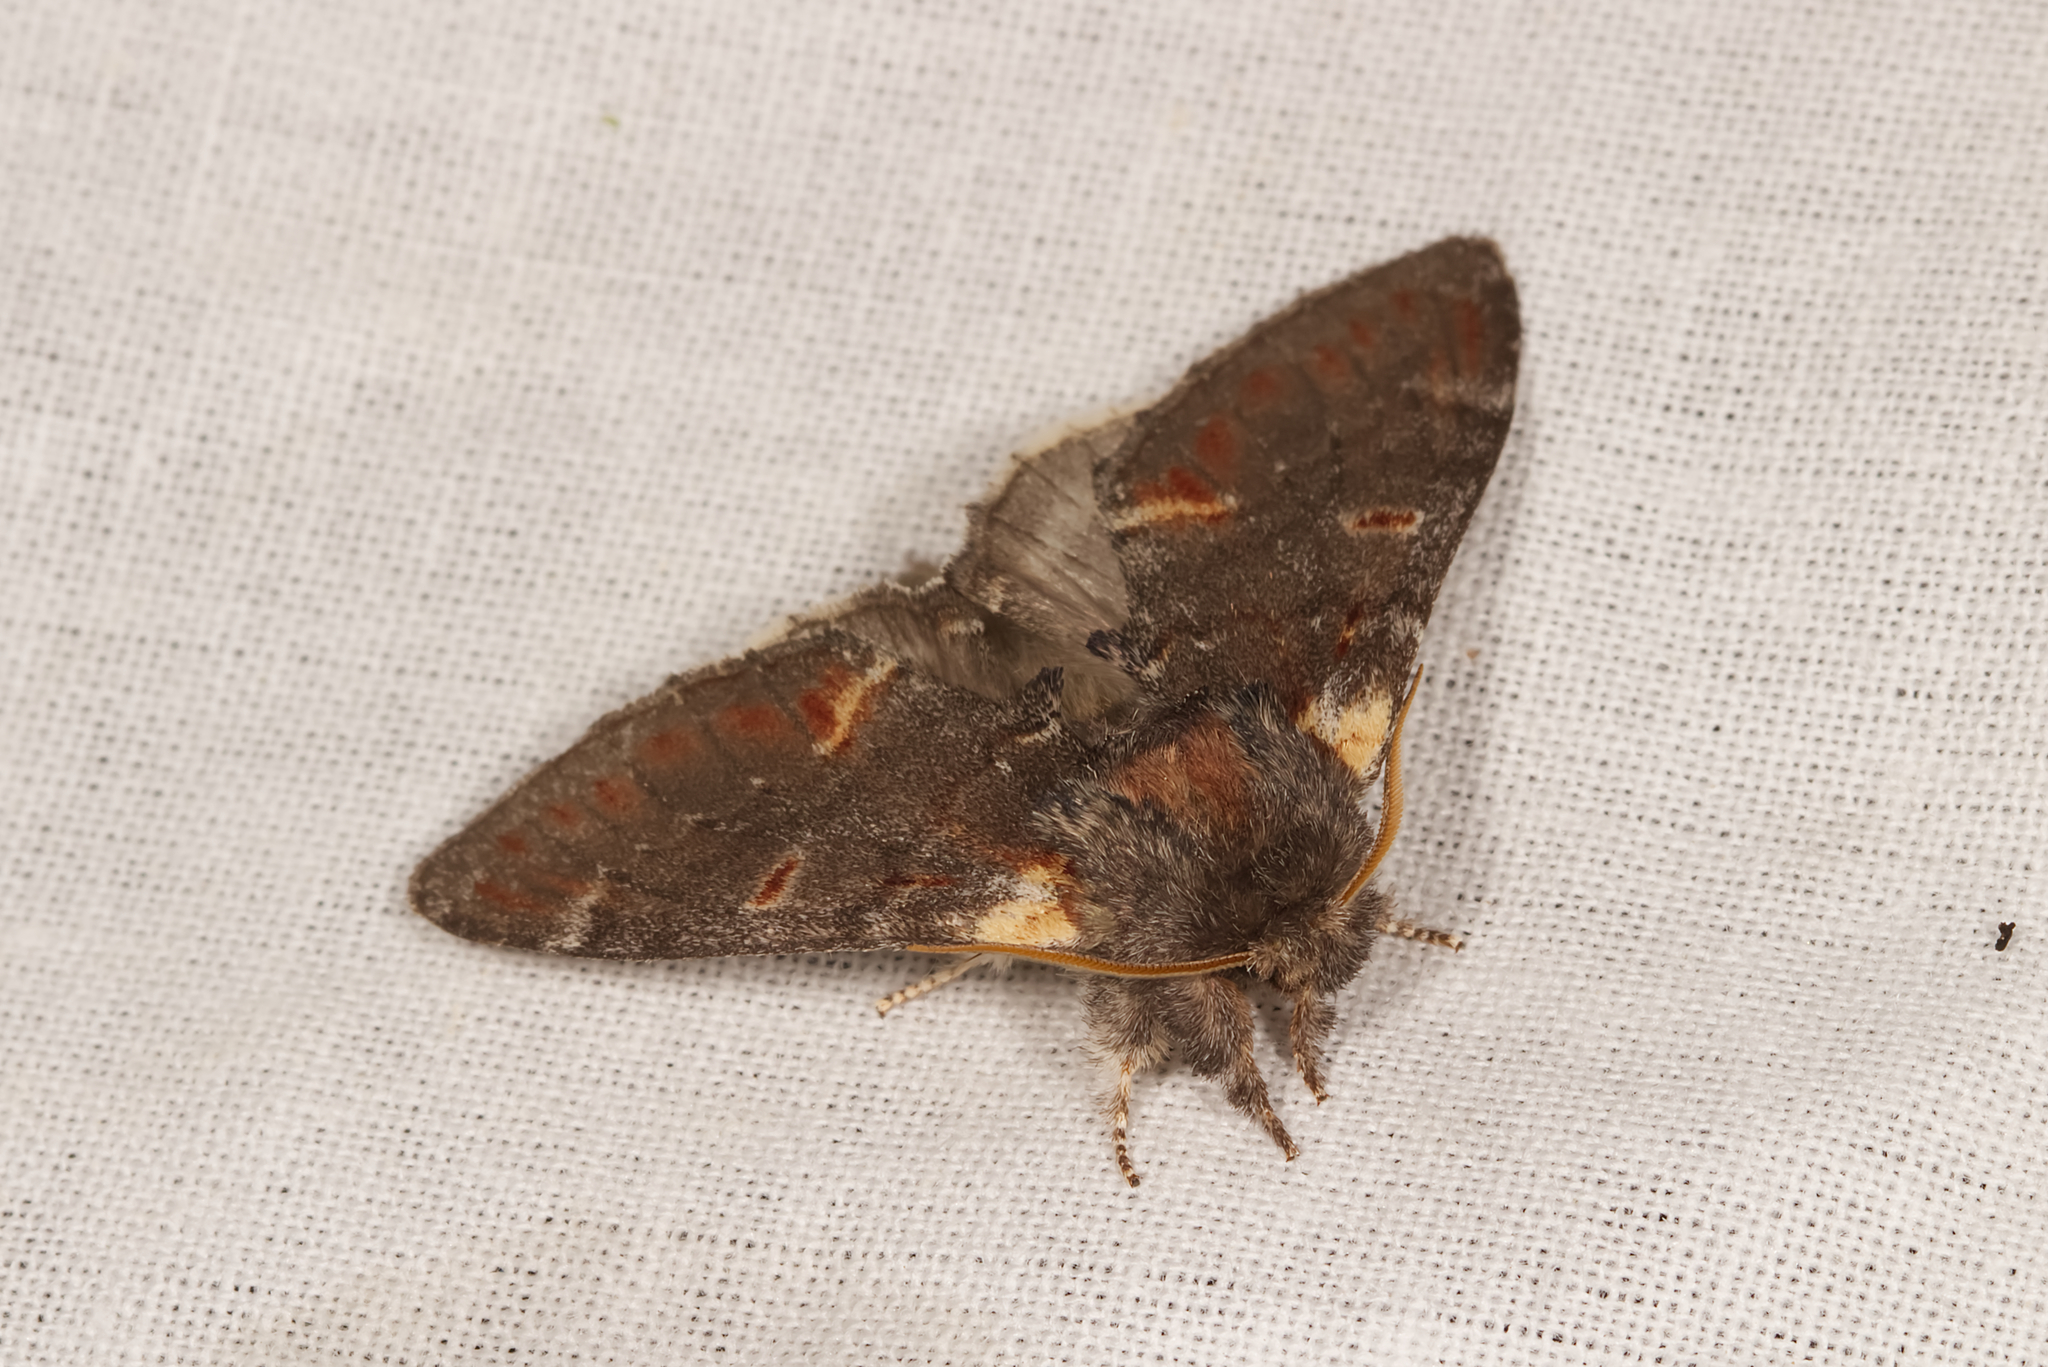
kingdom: Animalia
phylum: Arthropoda
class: Insecta
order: Lepidoptera
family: Notodontidae
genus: Notodonta
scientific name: Notodonta dromedarius
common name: Iron prominent
